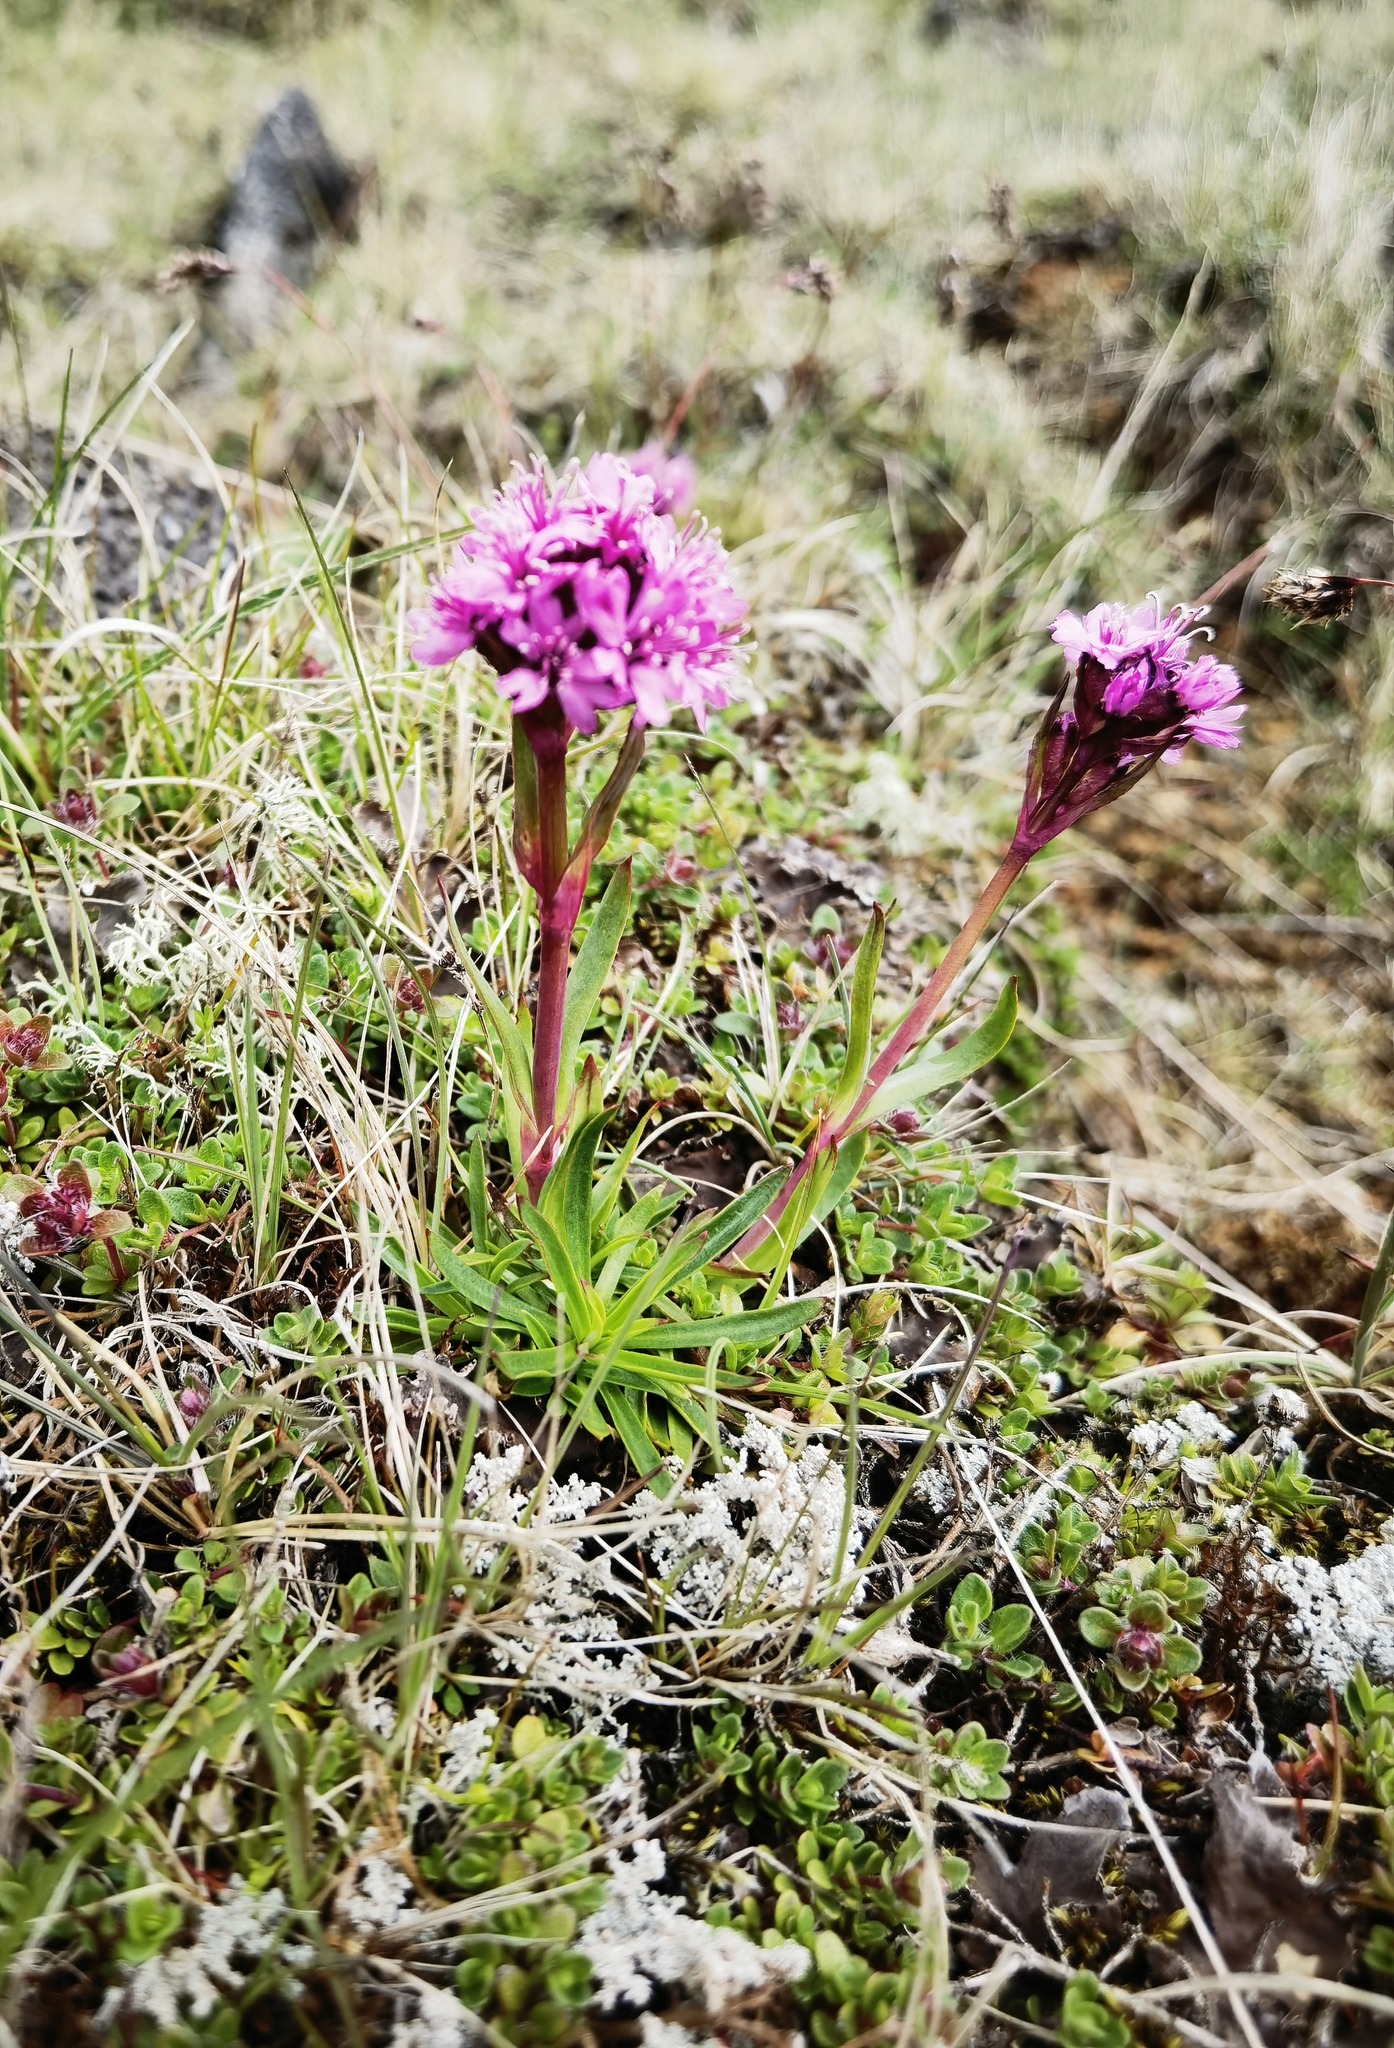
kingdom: Plantae
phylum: Tracheophyta
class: Magnoliopsida
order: Caryophyllales
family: Caryophyllaceae
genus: Viscaria
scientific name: Viscaria alpina
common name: Alpine campion
